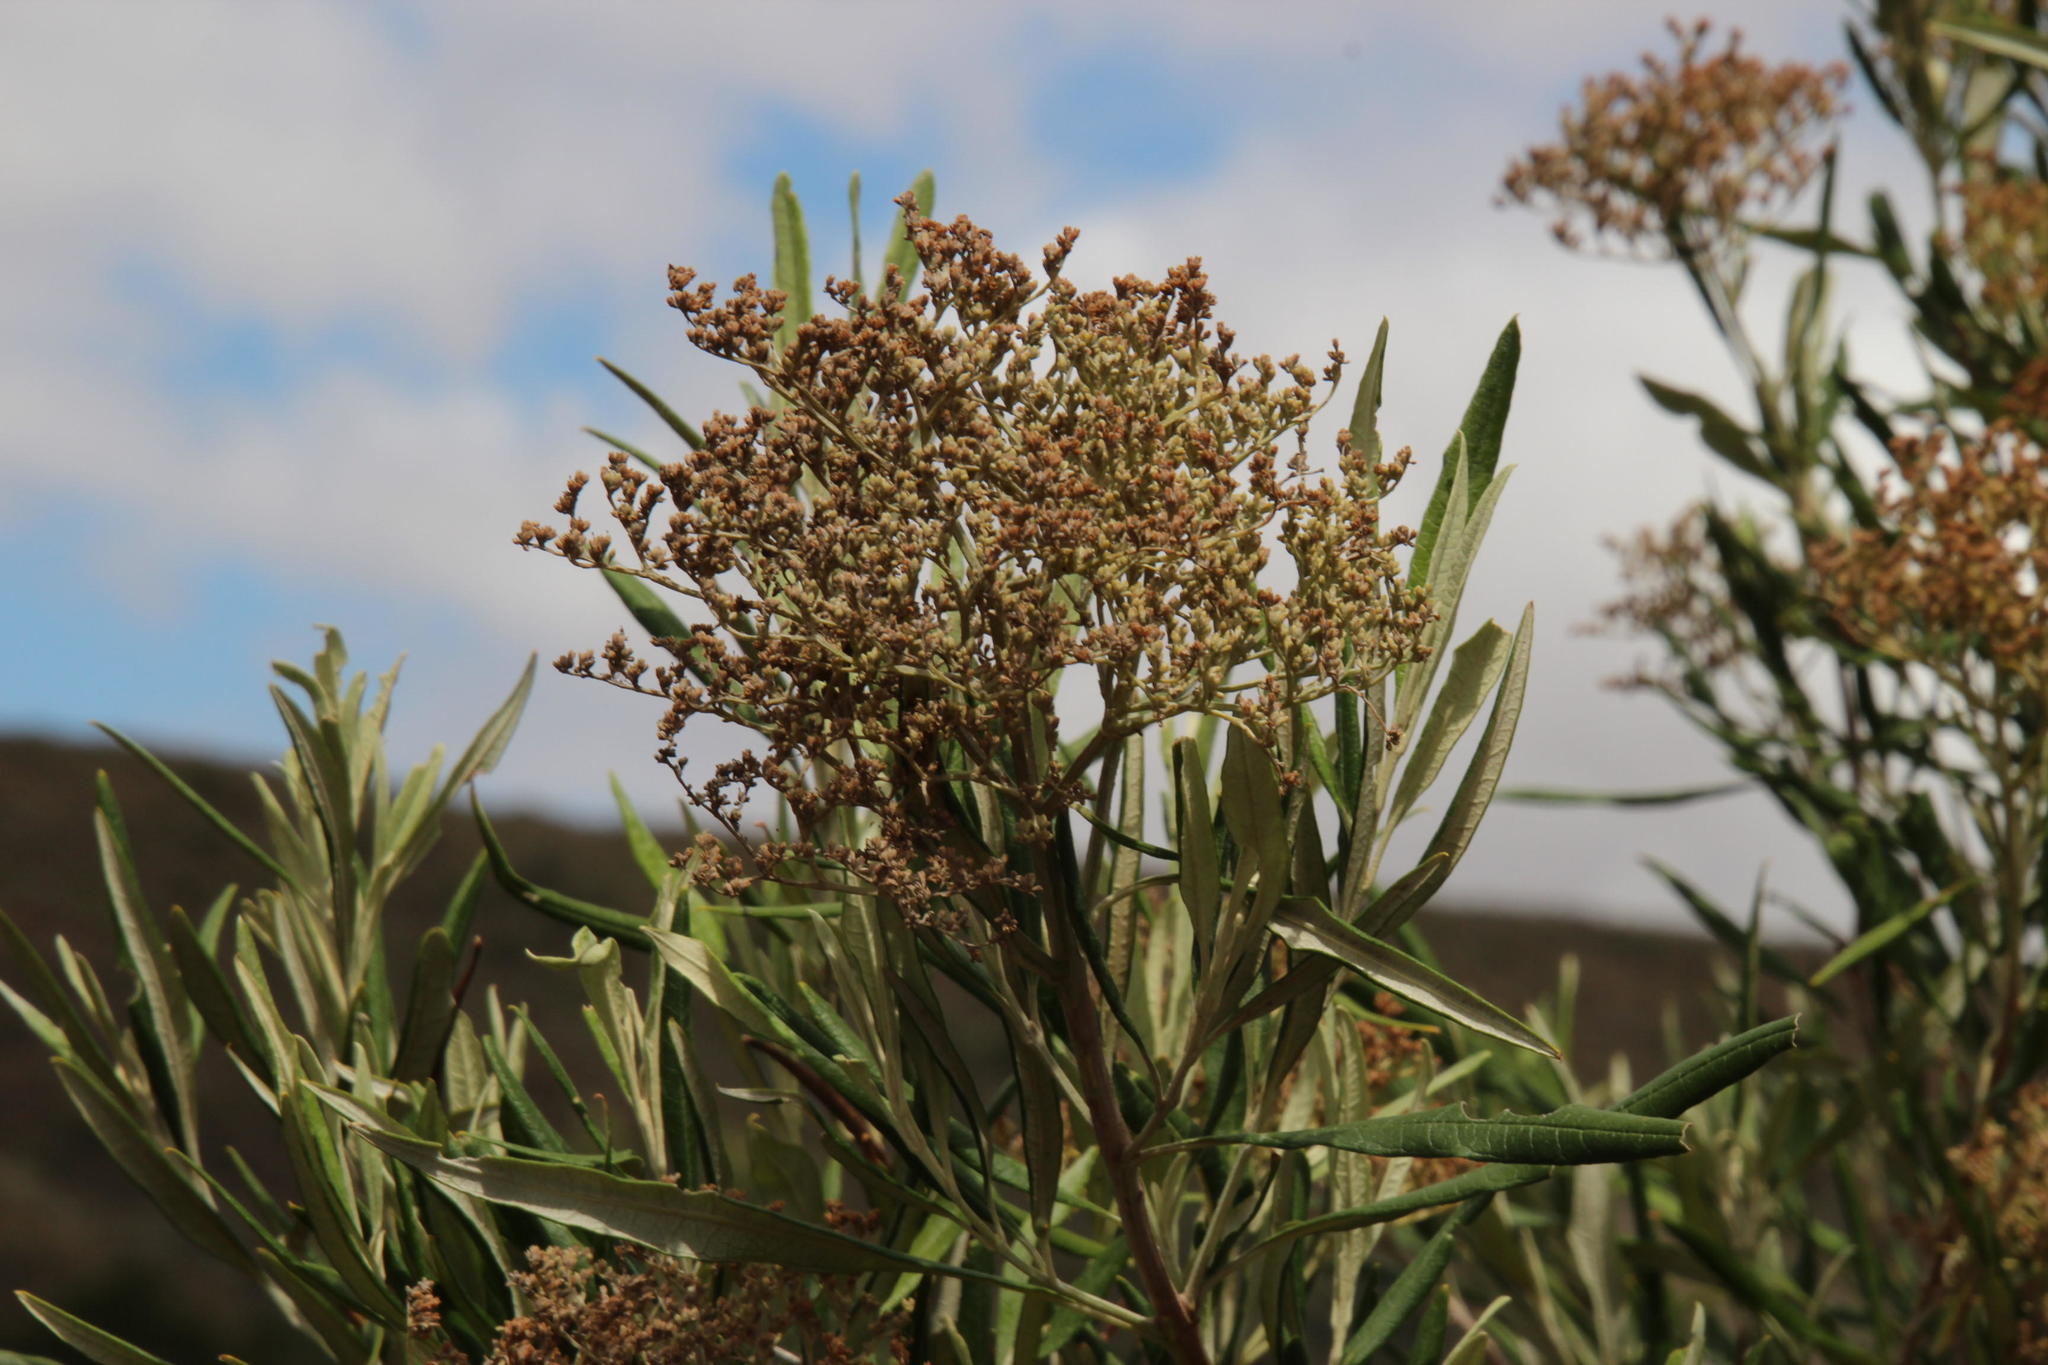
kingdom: Plantae
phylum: Tracheophyta
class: Magnoliopsida
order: Lamiales
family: Scrophulariaceae
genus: Buddleja
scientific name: Buddleja saligna
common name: False olive
